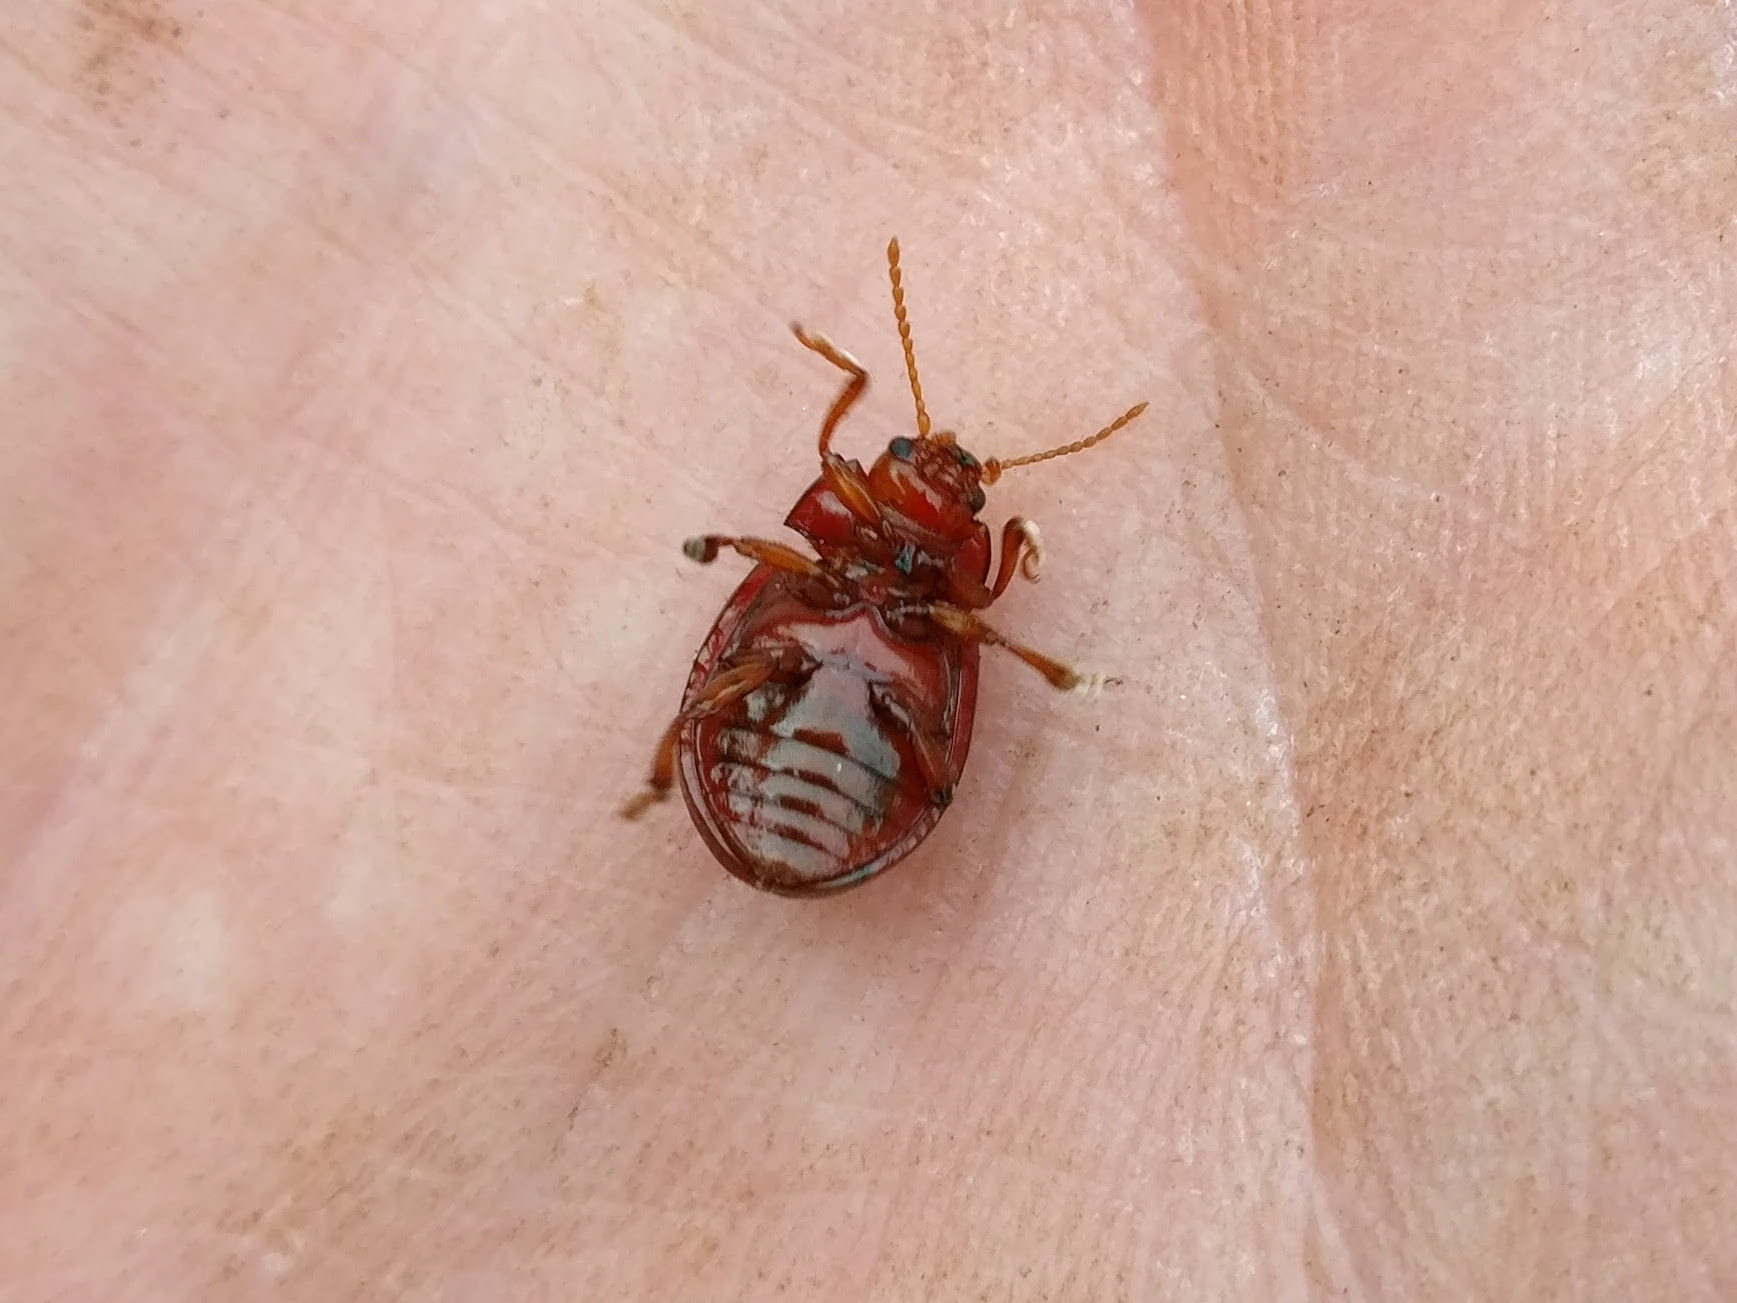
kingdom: Animalia
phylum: Arthropoda
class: Insecta
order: Coleoptera
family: Chrysomelidae
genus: Chrysolina
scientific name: Chrysolina staphylaea
